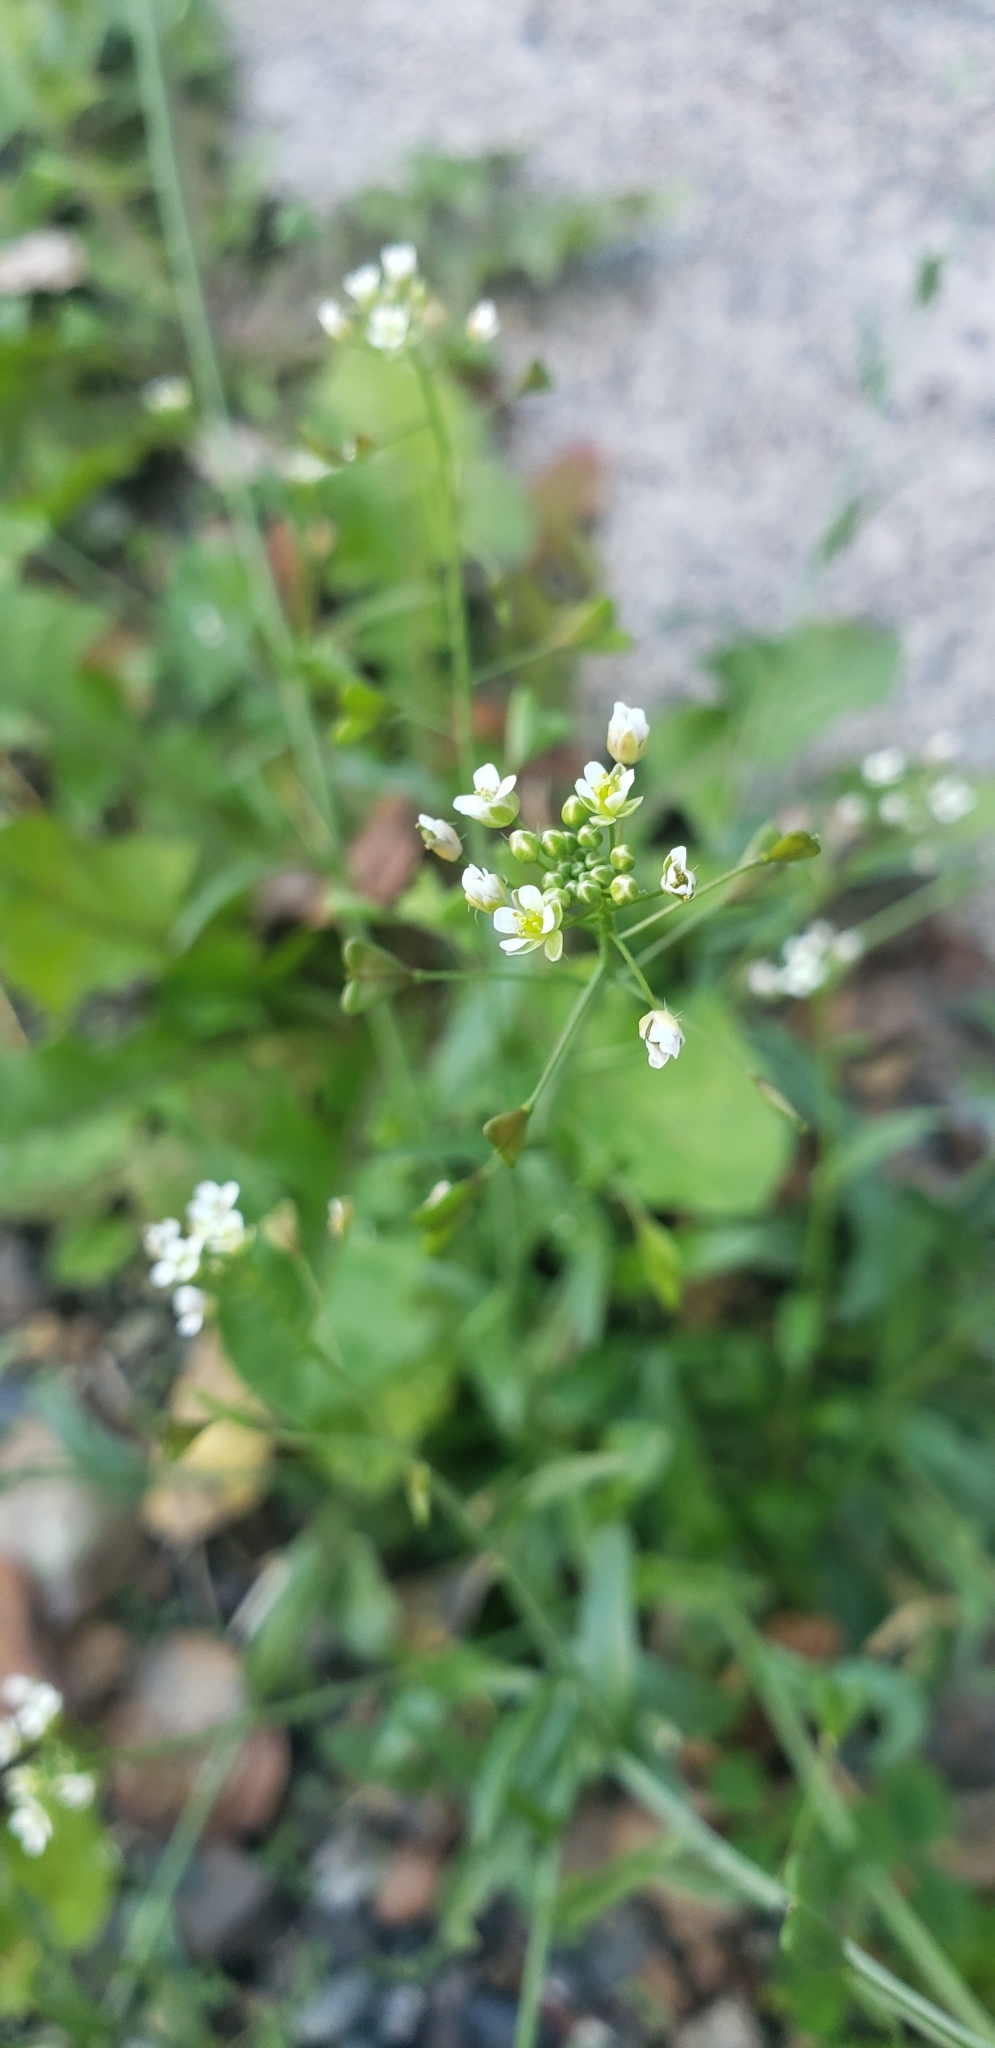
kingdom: Plantae
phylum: Tracheophyta
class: Magnoliopsida
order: Brassicales
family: Brassicaceae
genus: Capsella
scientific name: Capsella bursa-pastoris
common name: Shepherd's purse
